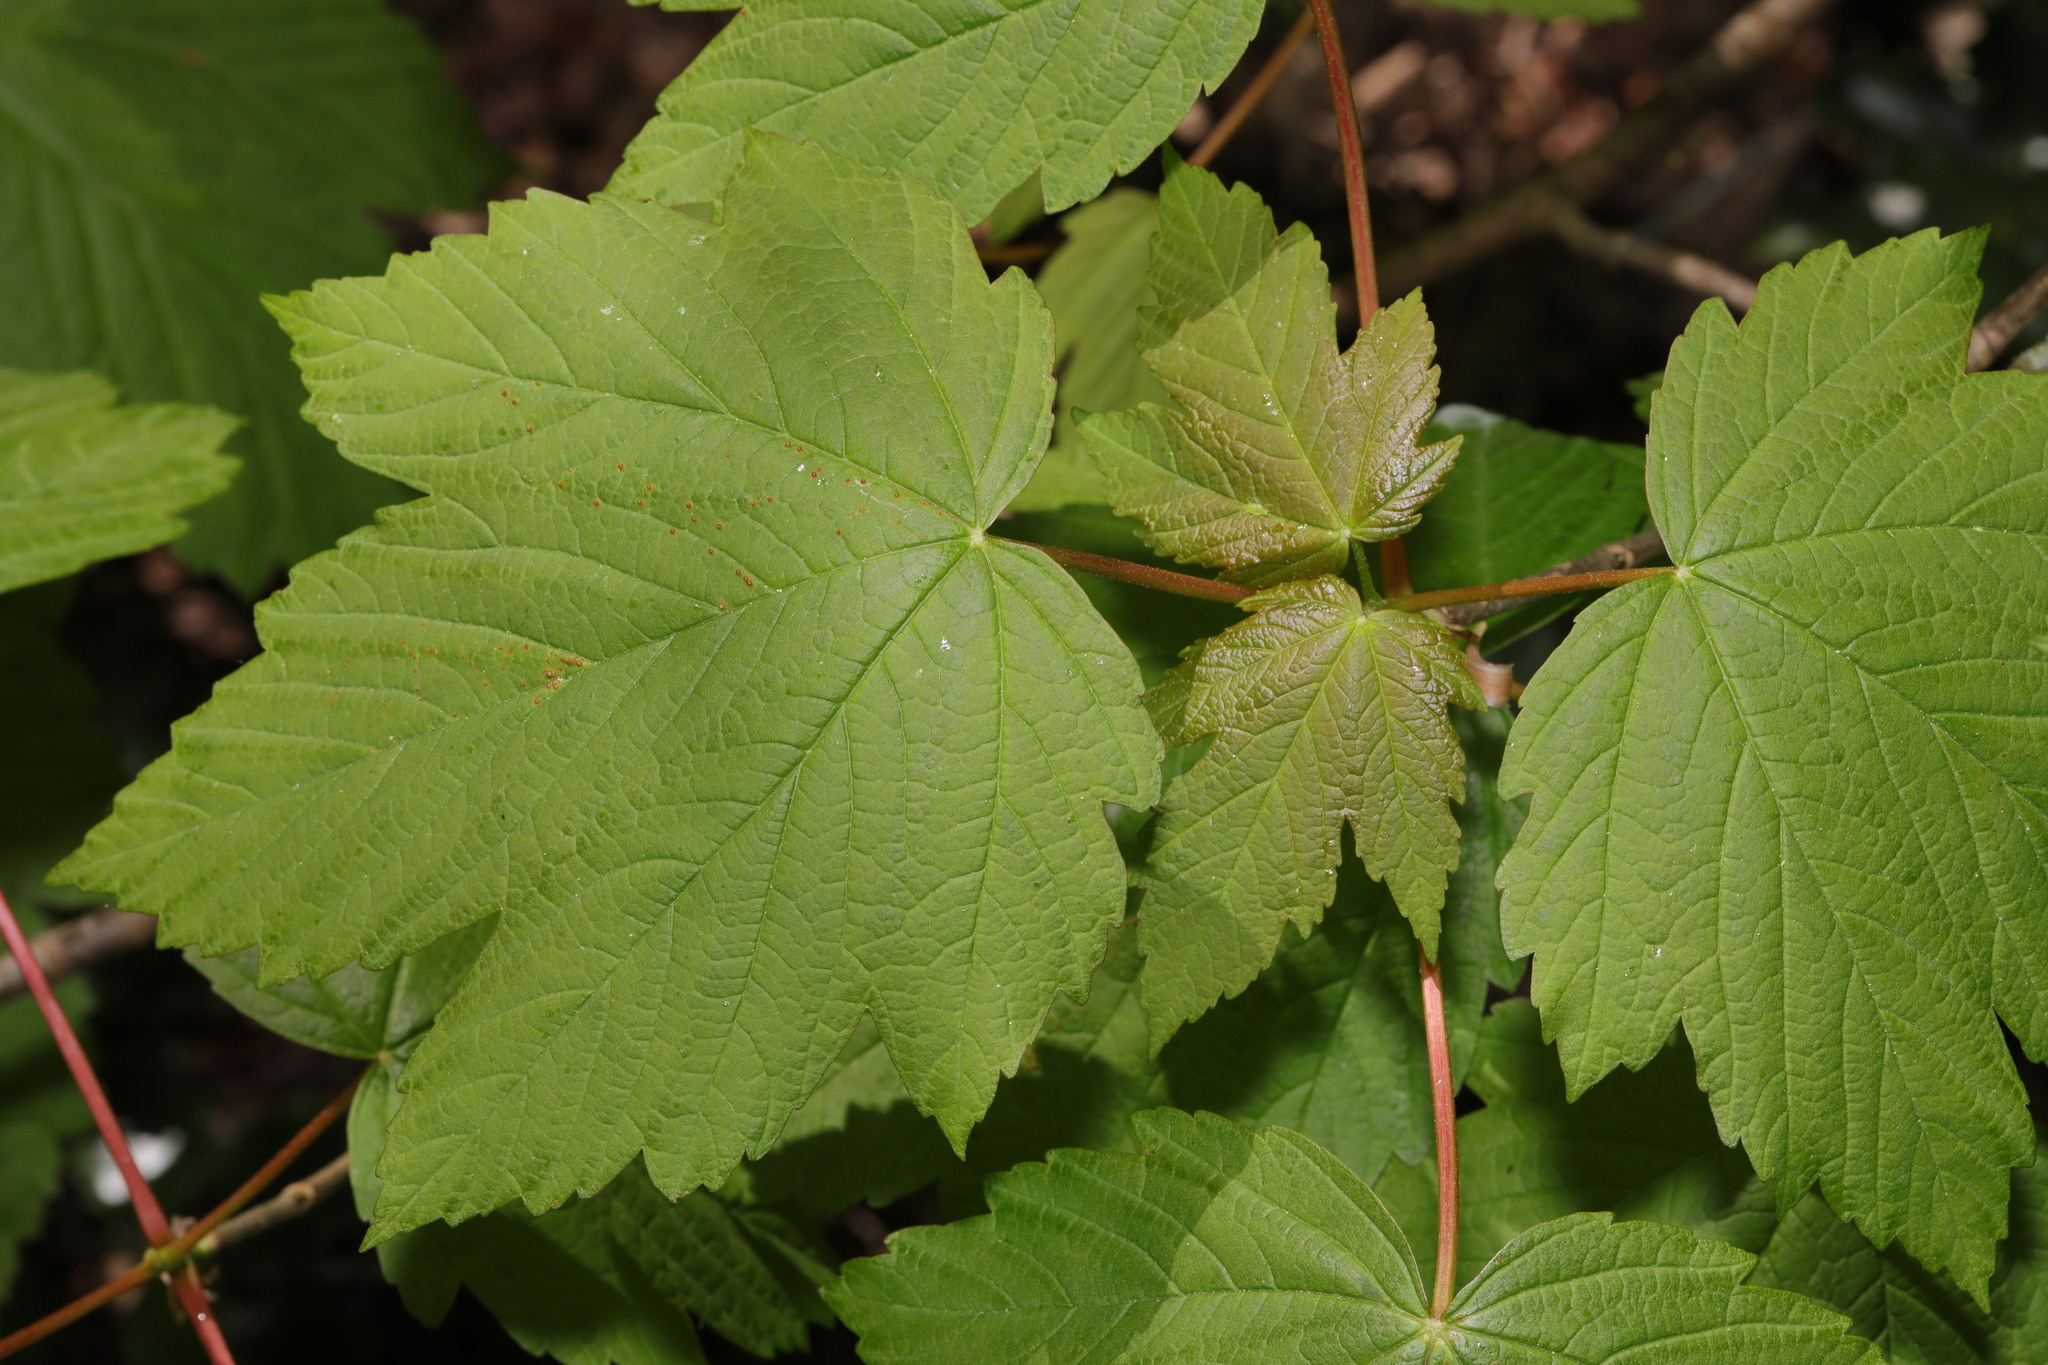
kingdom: Plantae
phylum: Tracheophyta
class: Magnoliopsida
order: Sapindales
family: Sapindaceae
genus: Acer
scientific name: Acer pseudoplatanus
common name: Sycamore
